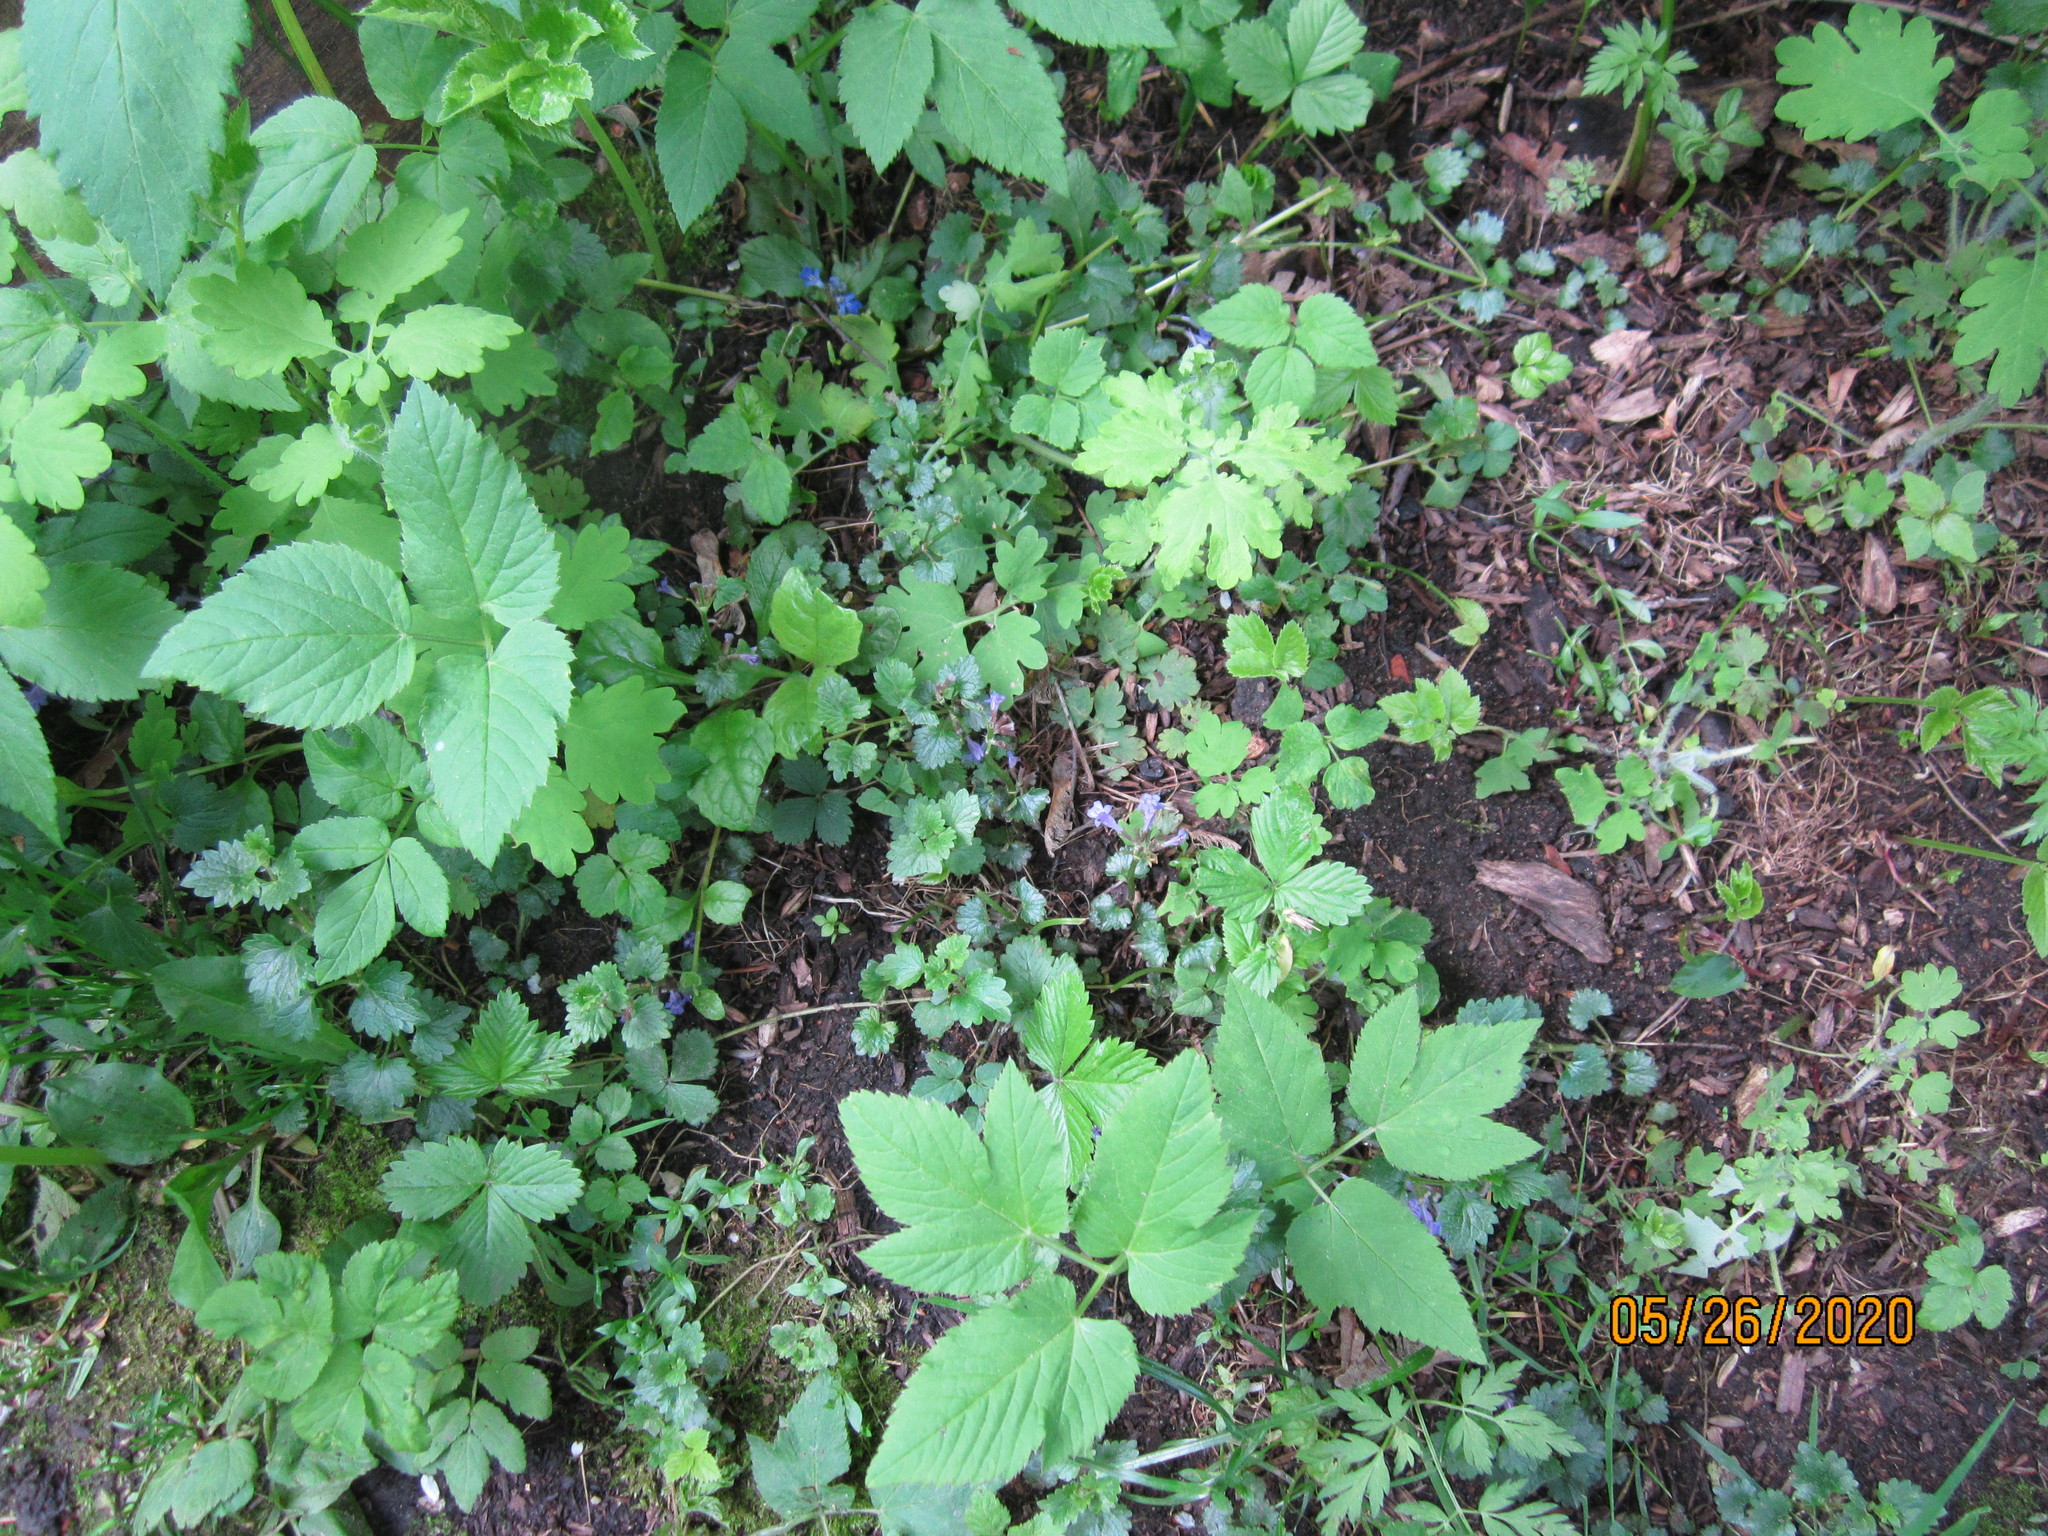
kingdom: Plantae
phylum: Tracheophyta
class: Magnoliopsida
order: Lamiales
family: Lamiaceae
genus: Glechoma
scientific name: Glechoma hederacea
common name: Ground ivy
